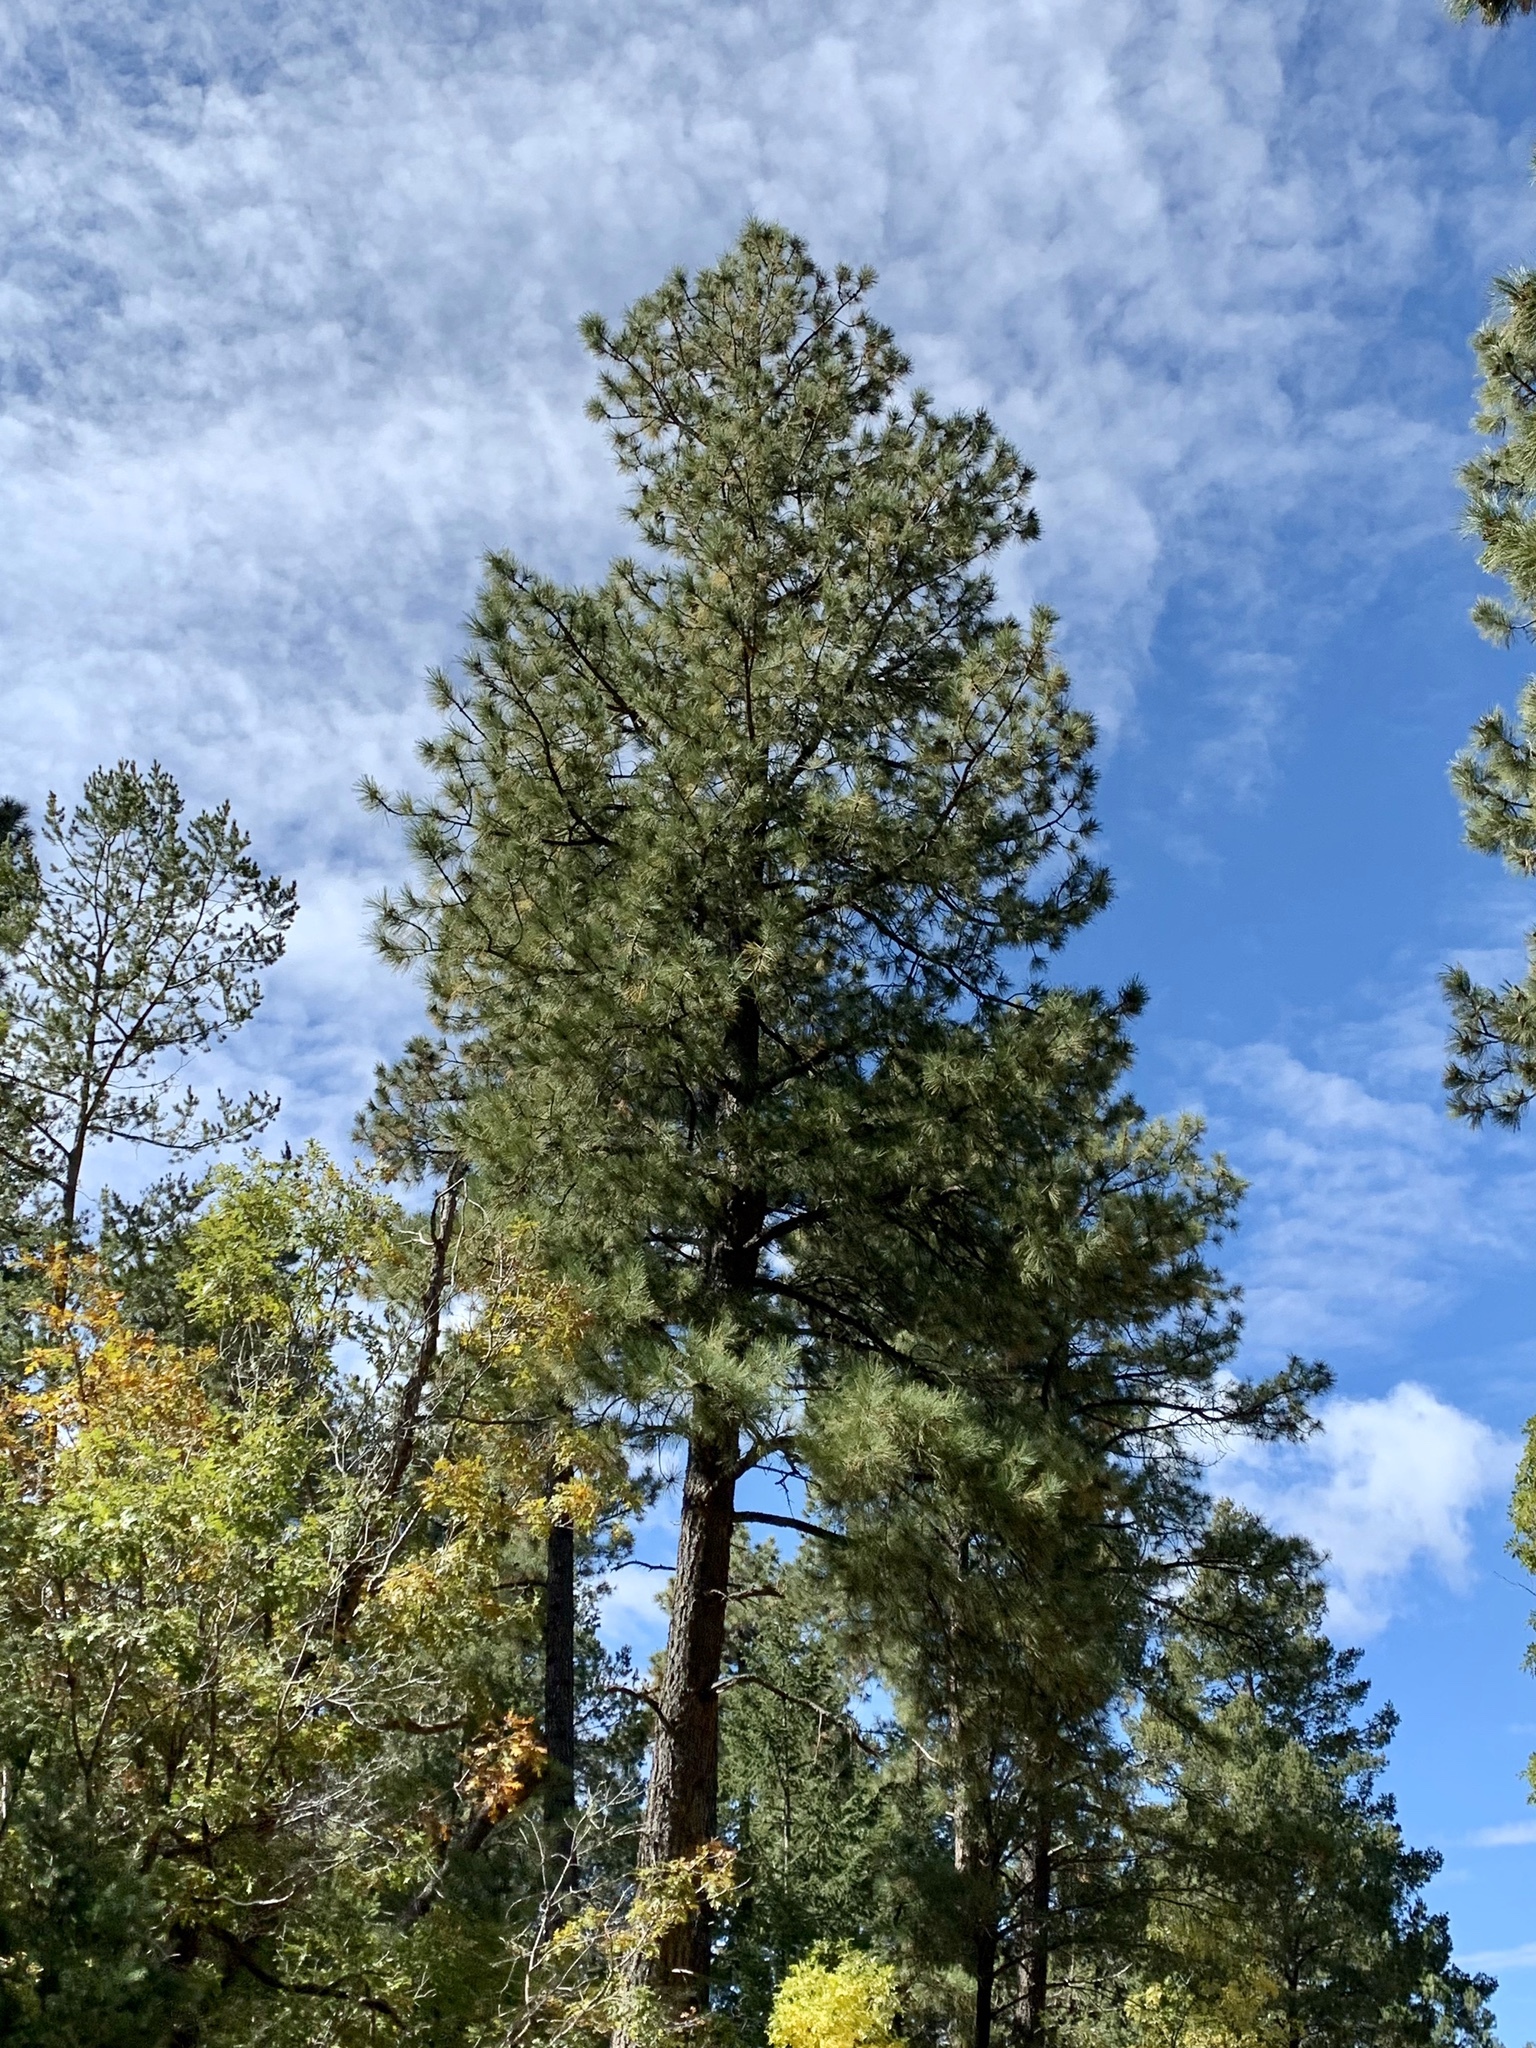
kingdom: Plantae
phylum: Tracheophyta
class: Pinopsida
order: Pinales
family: Pinaceae
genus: Pinus
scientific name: Pinus ponderosa
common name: Western yellow-pine
